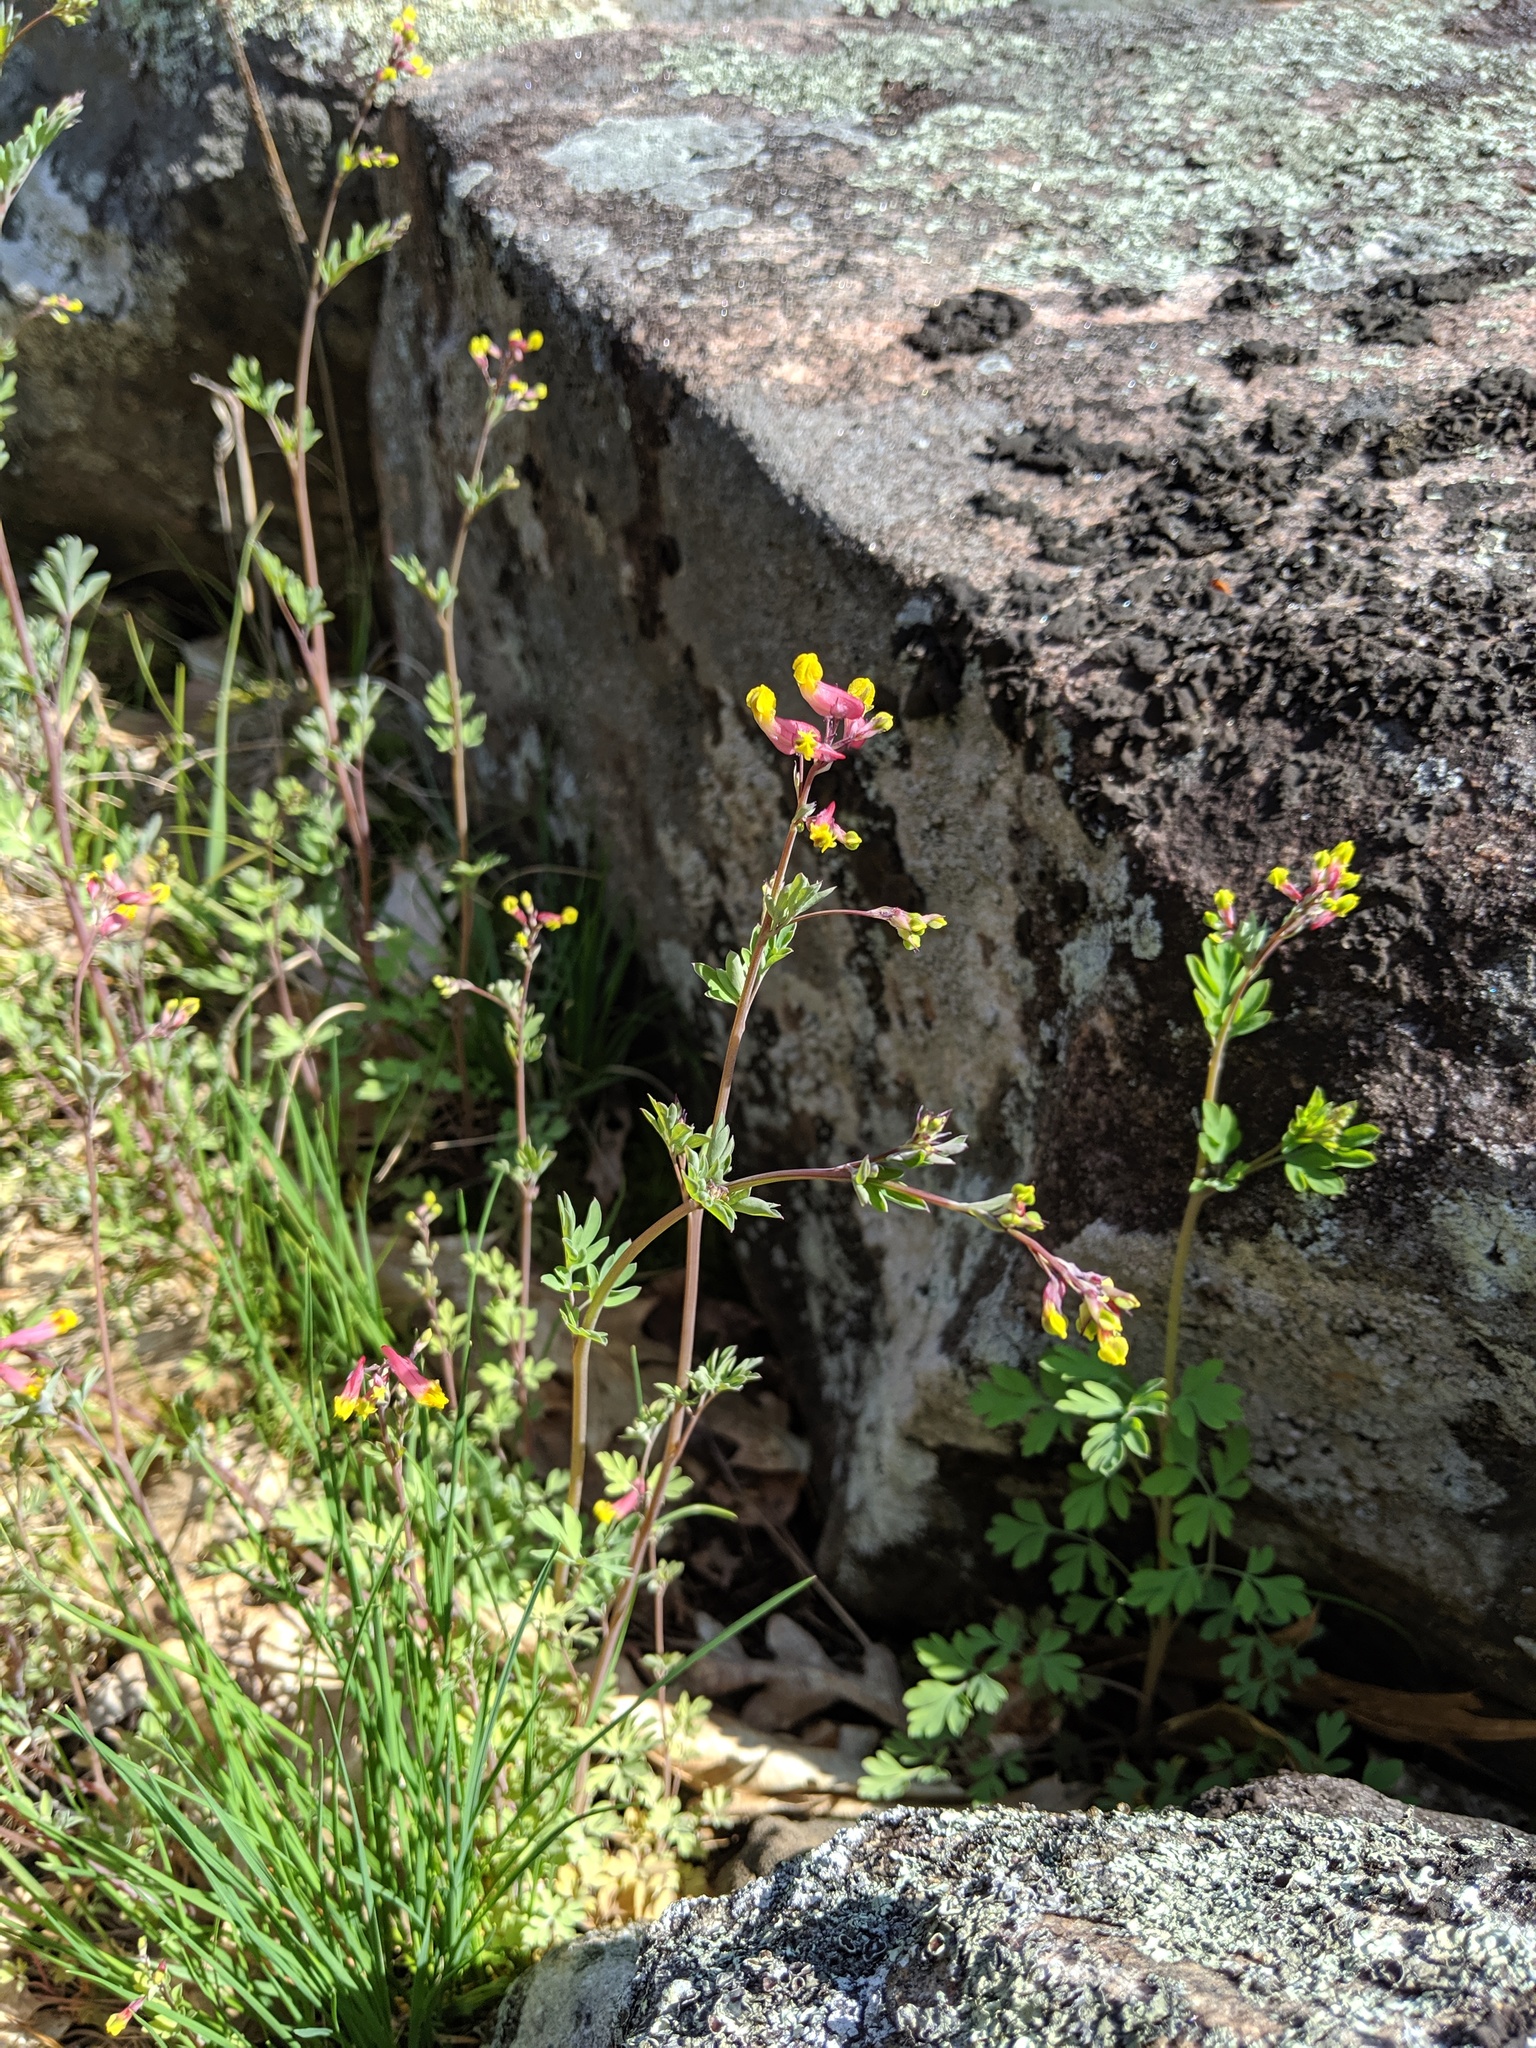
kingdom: Plantae
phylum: Tracheophyta
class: Magnoliopsida
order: Ranunculales
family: Papaveraceae
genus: Capnoides
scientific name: Capnoides sempervirens
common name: Rock harlequin
